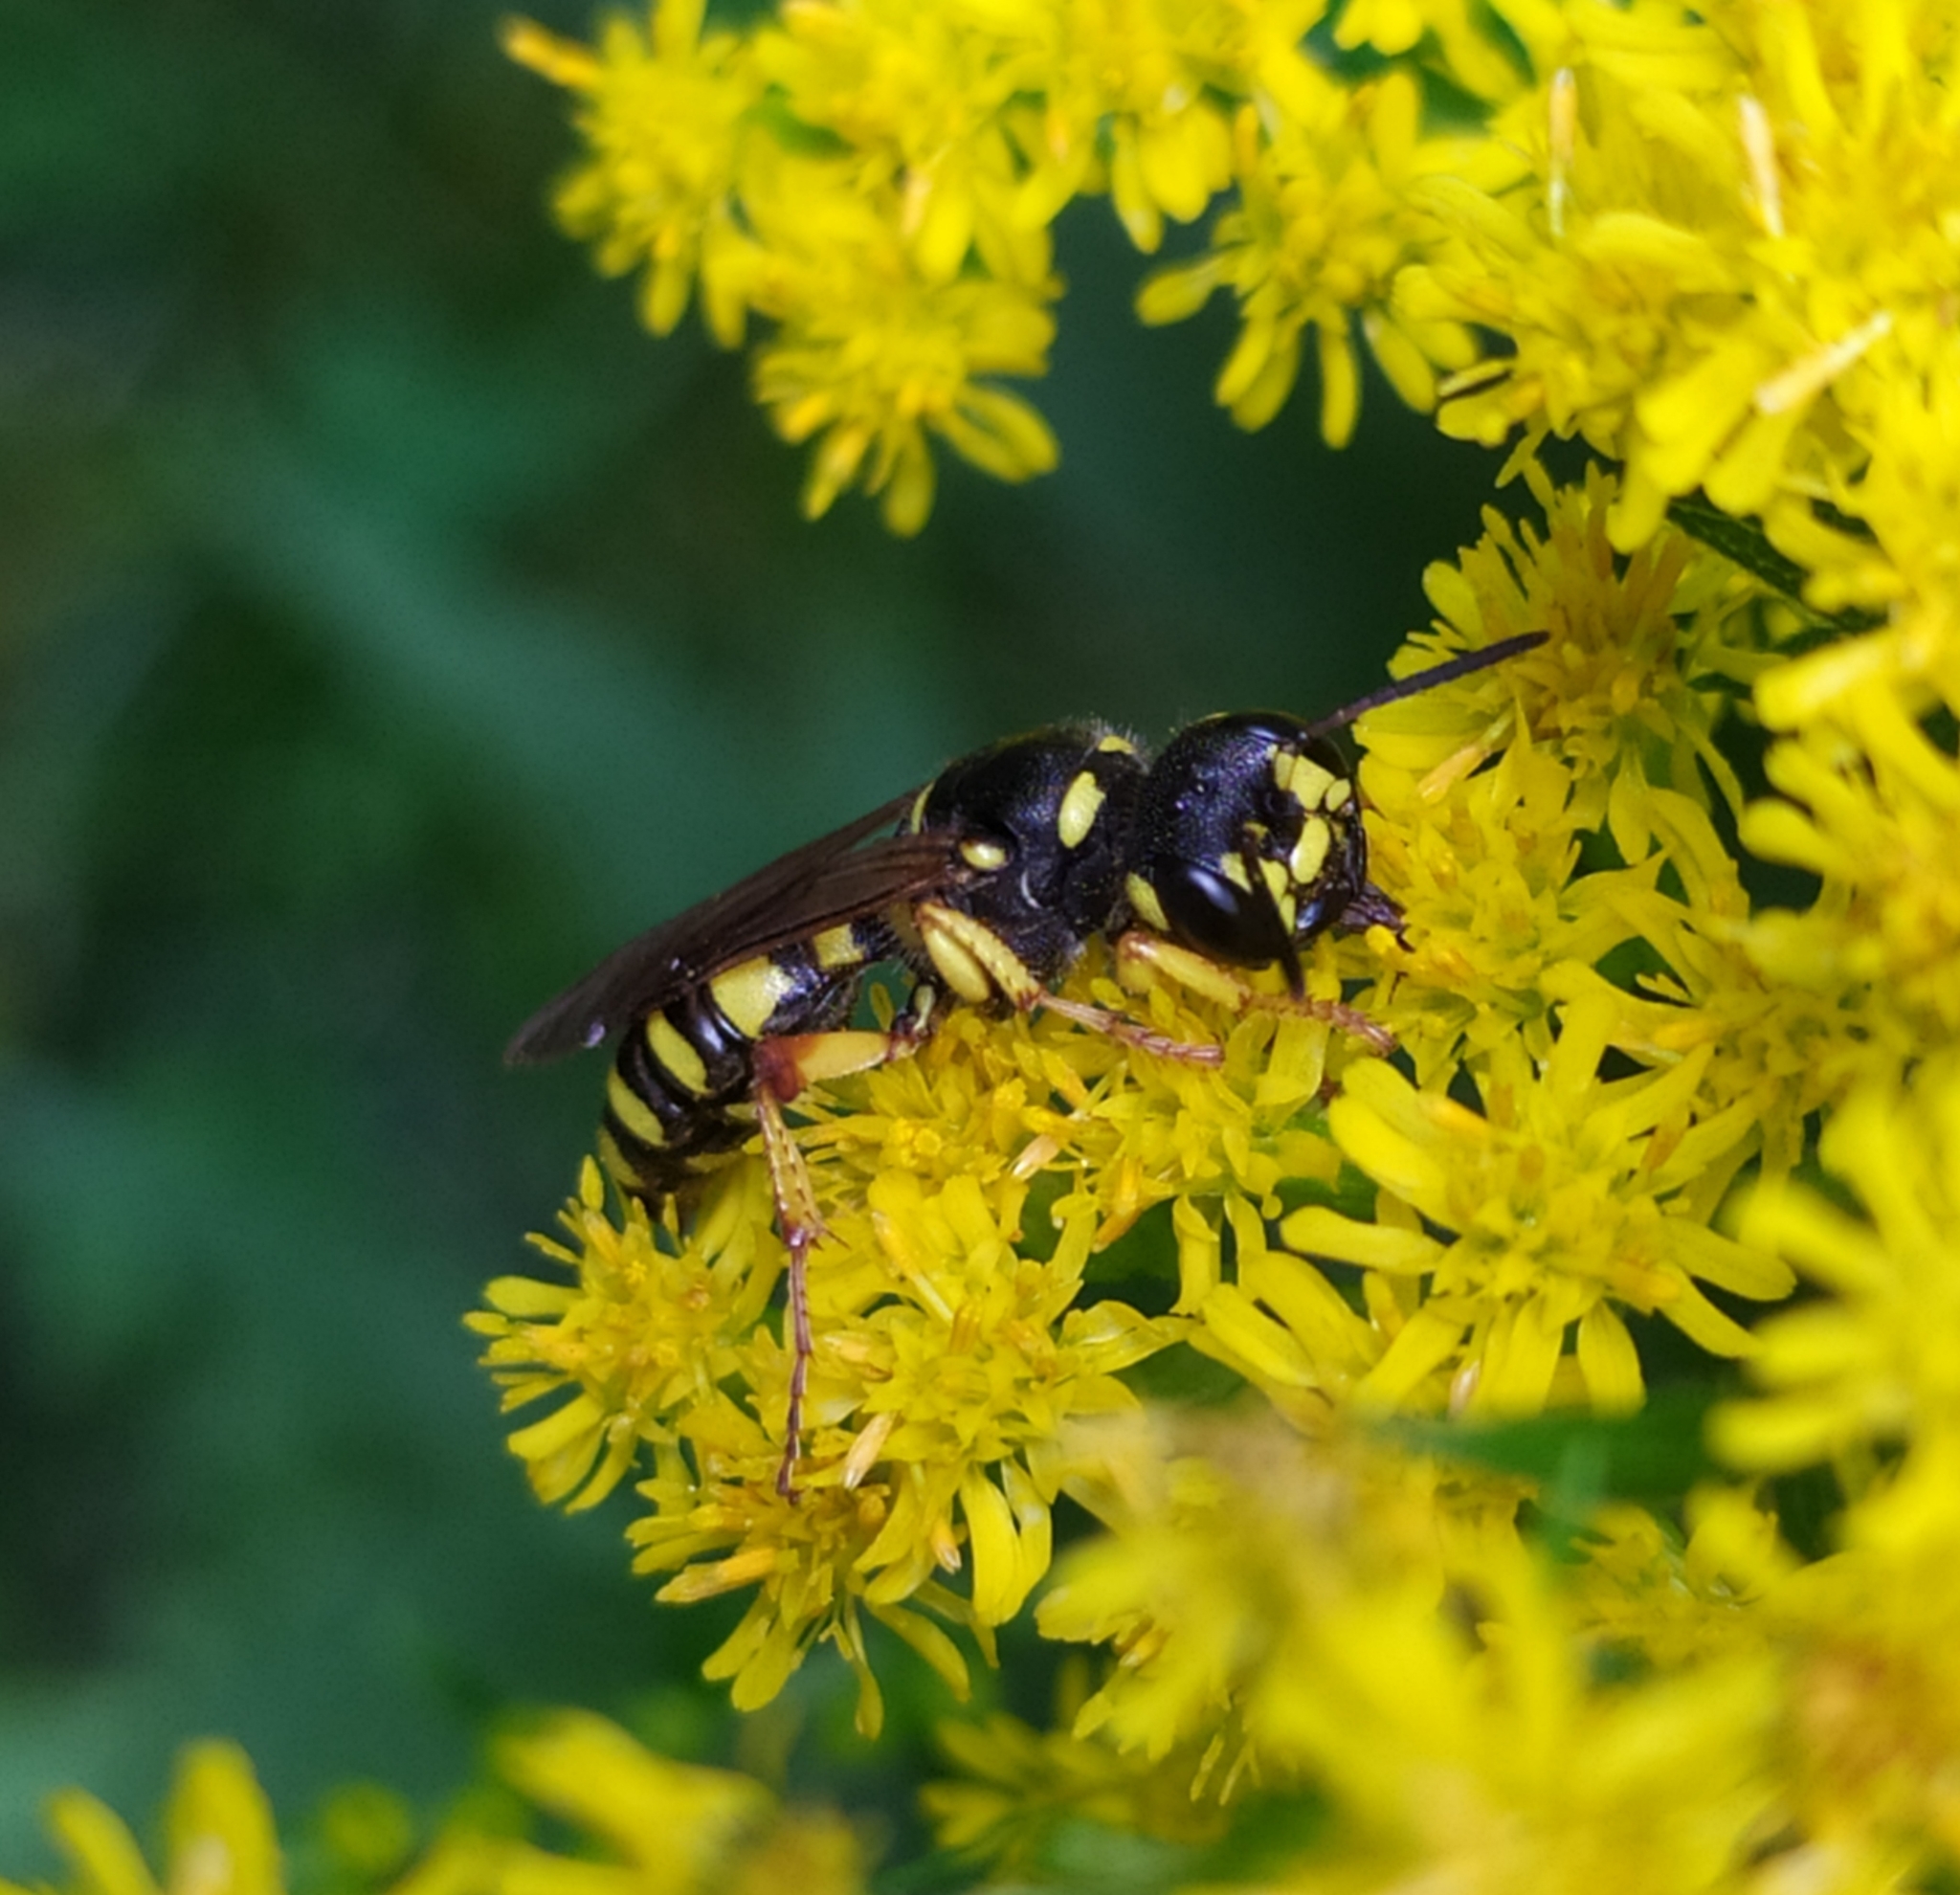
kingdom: Animalia
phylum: Arthropoda
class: Insecta
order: Hymenoptera
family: Crabronidae
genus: Cerceris
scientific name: Cerceris arenaria
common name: Sand tailed digger wasp
